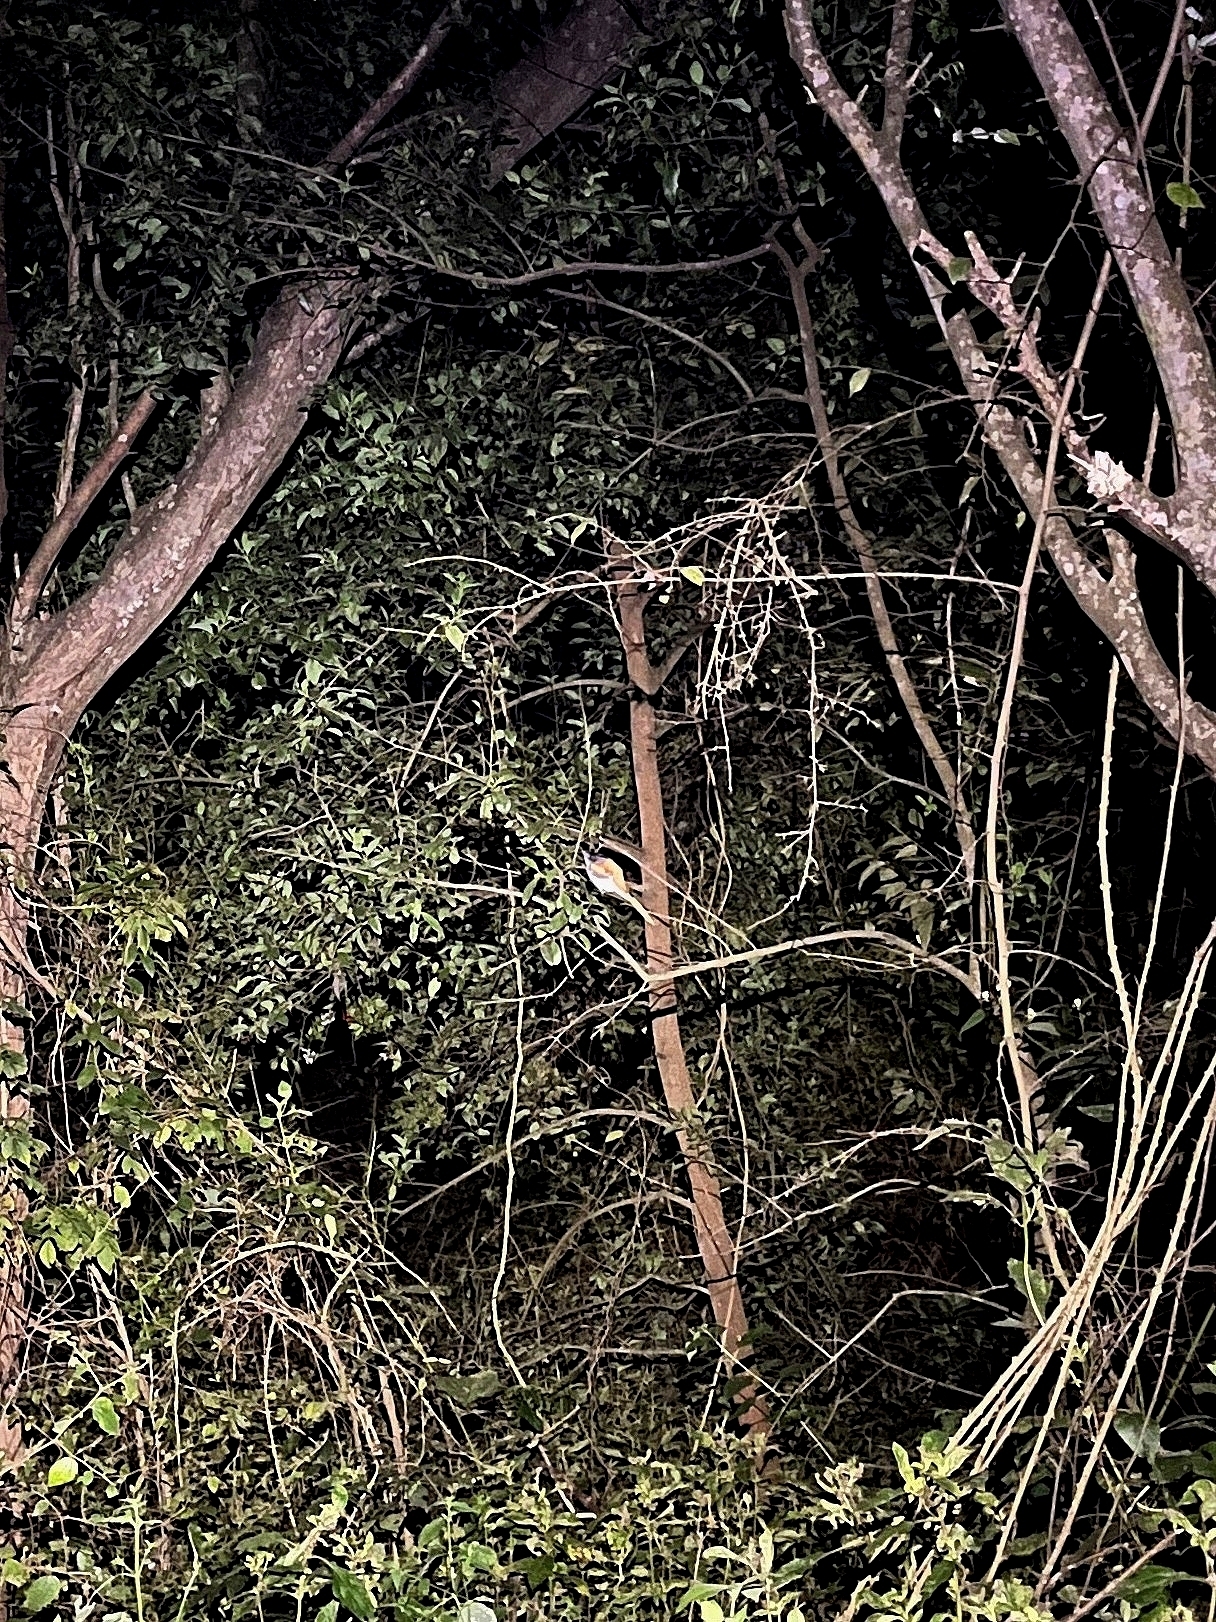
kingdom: Animalia
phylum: Chordata
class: Aves
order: Passeriformes
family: Monarchidae
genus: Terpsiphone
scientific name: Terpsiphone paradisi
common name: Indian paradise flycatcher
